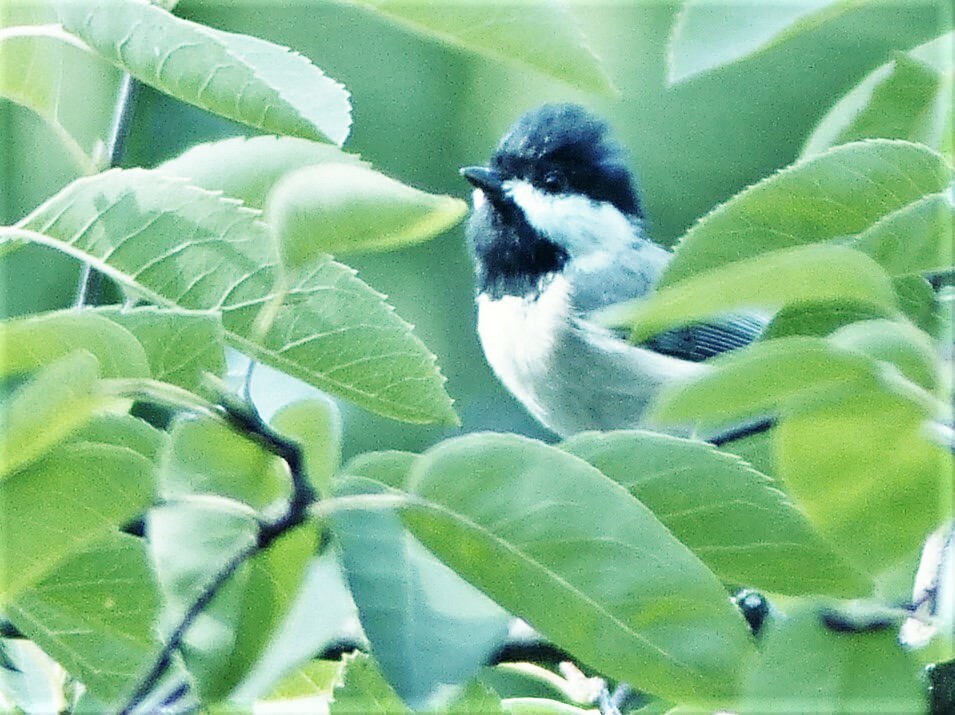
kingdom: Animalia
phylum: Chordata
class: Aves
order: Passeriformes
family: Paridae
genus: Poecile
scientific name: Poecile carolinensis
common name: Carolina chickadee
